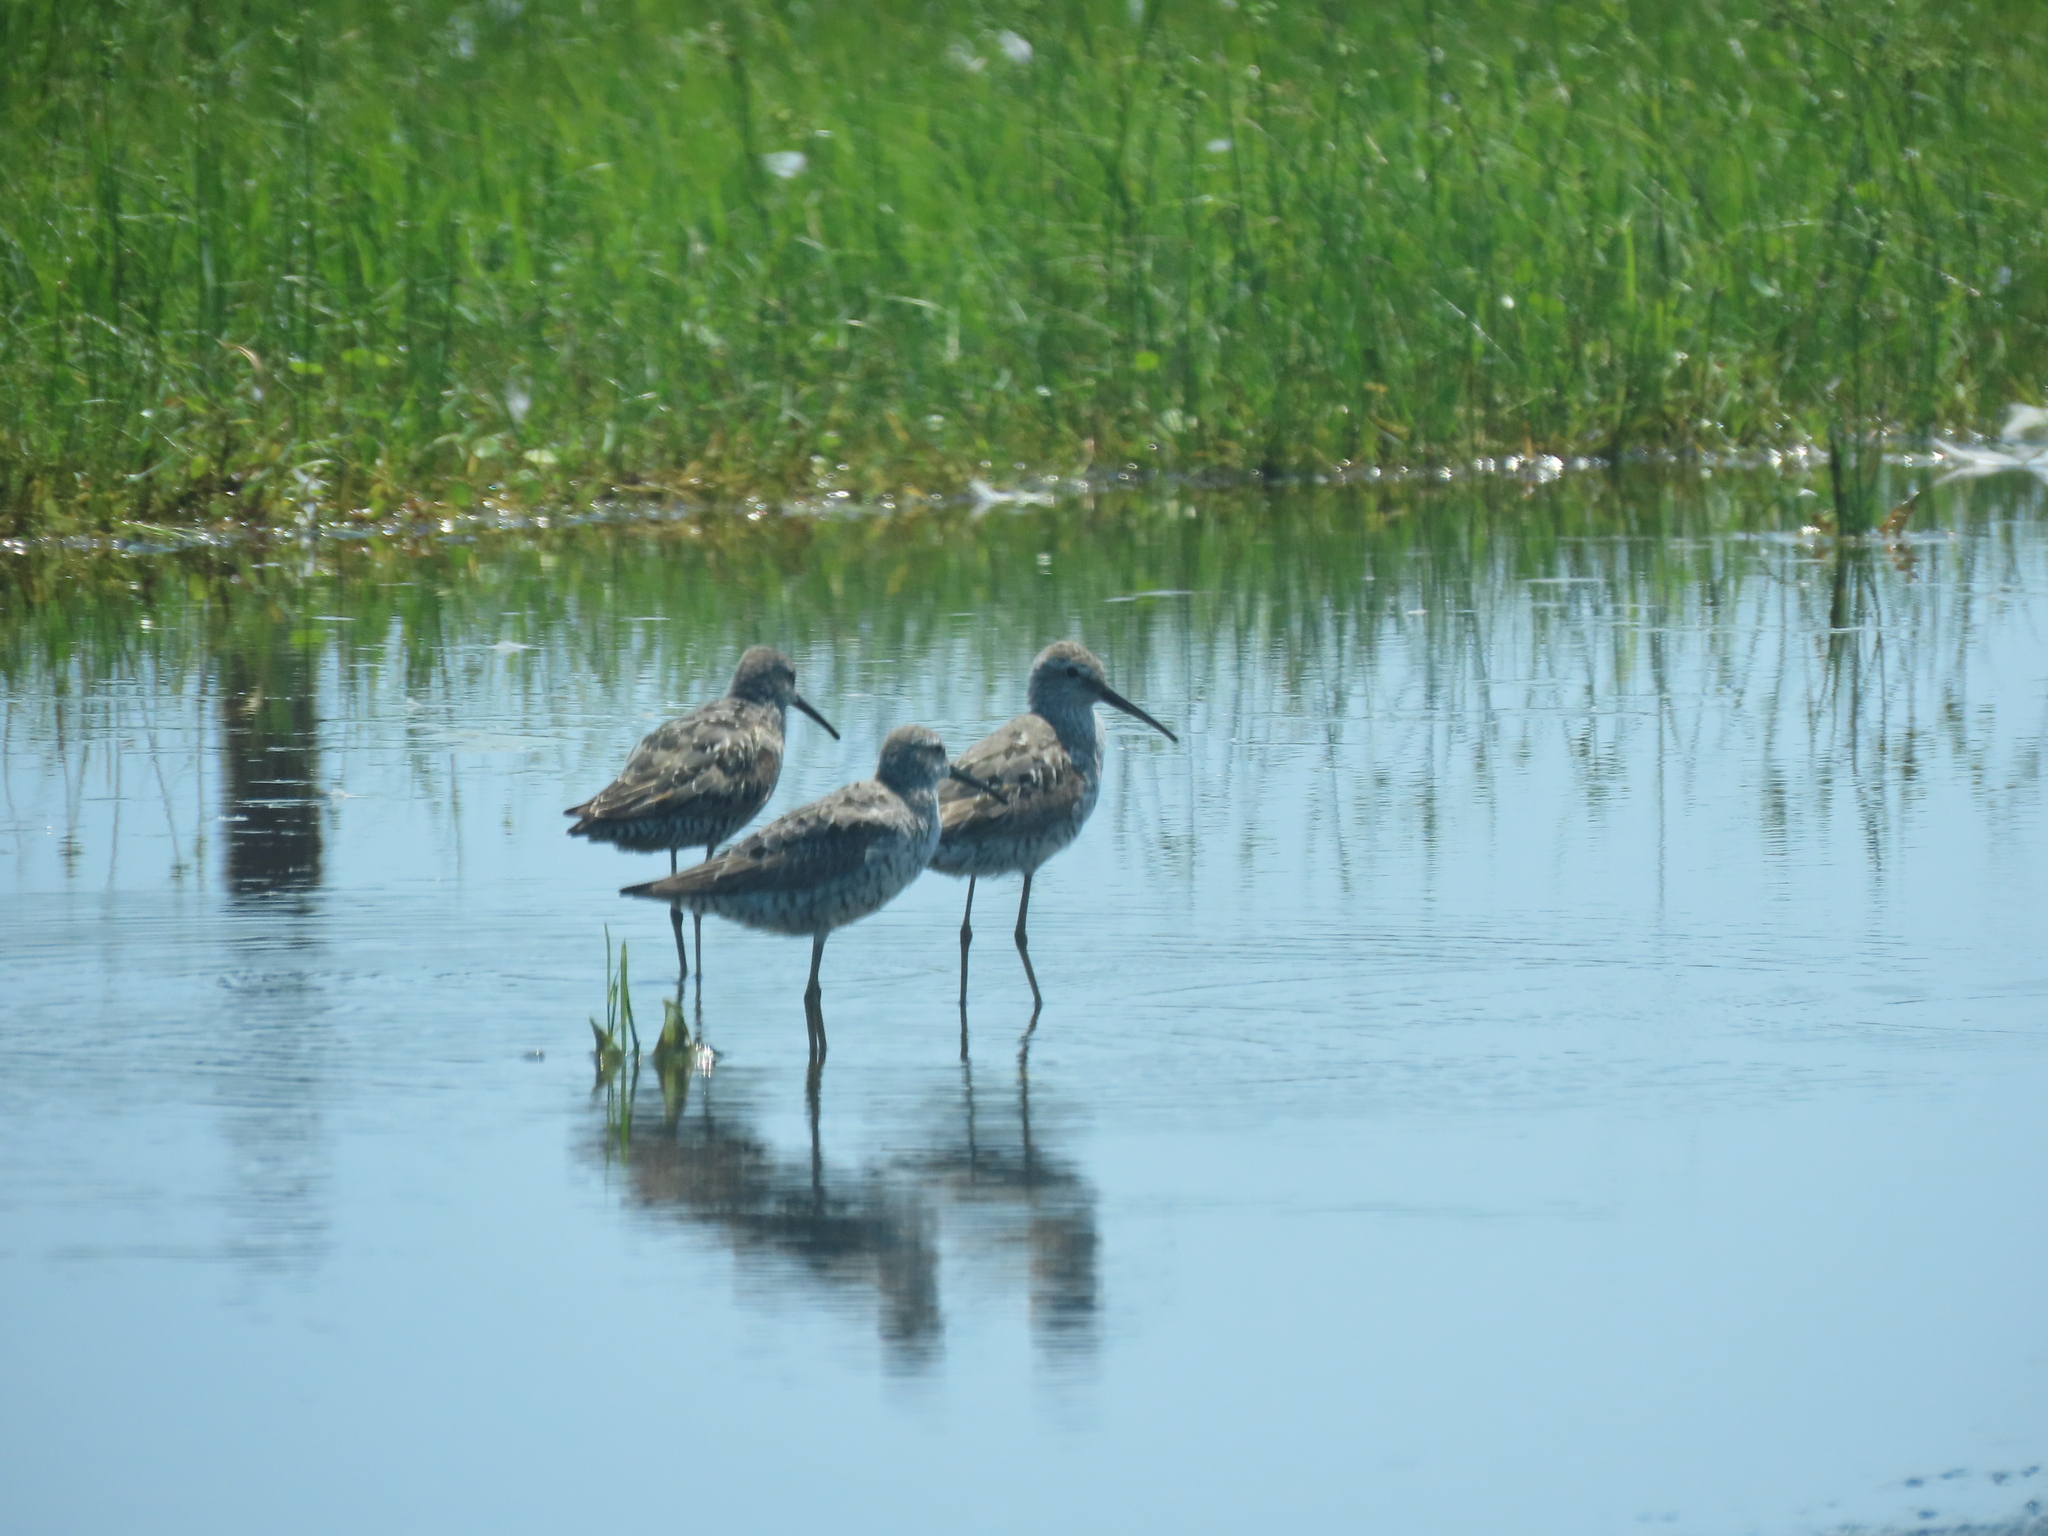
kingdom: Animalia
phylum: Chordata
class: Aves
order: Charadriiformes
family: Scolopacidae
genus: Calidris
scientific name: Calidris himantopus
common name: Stilt sandpiper
